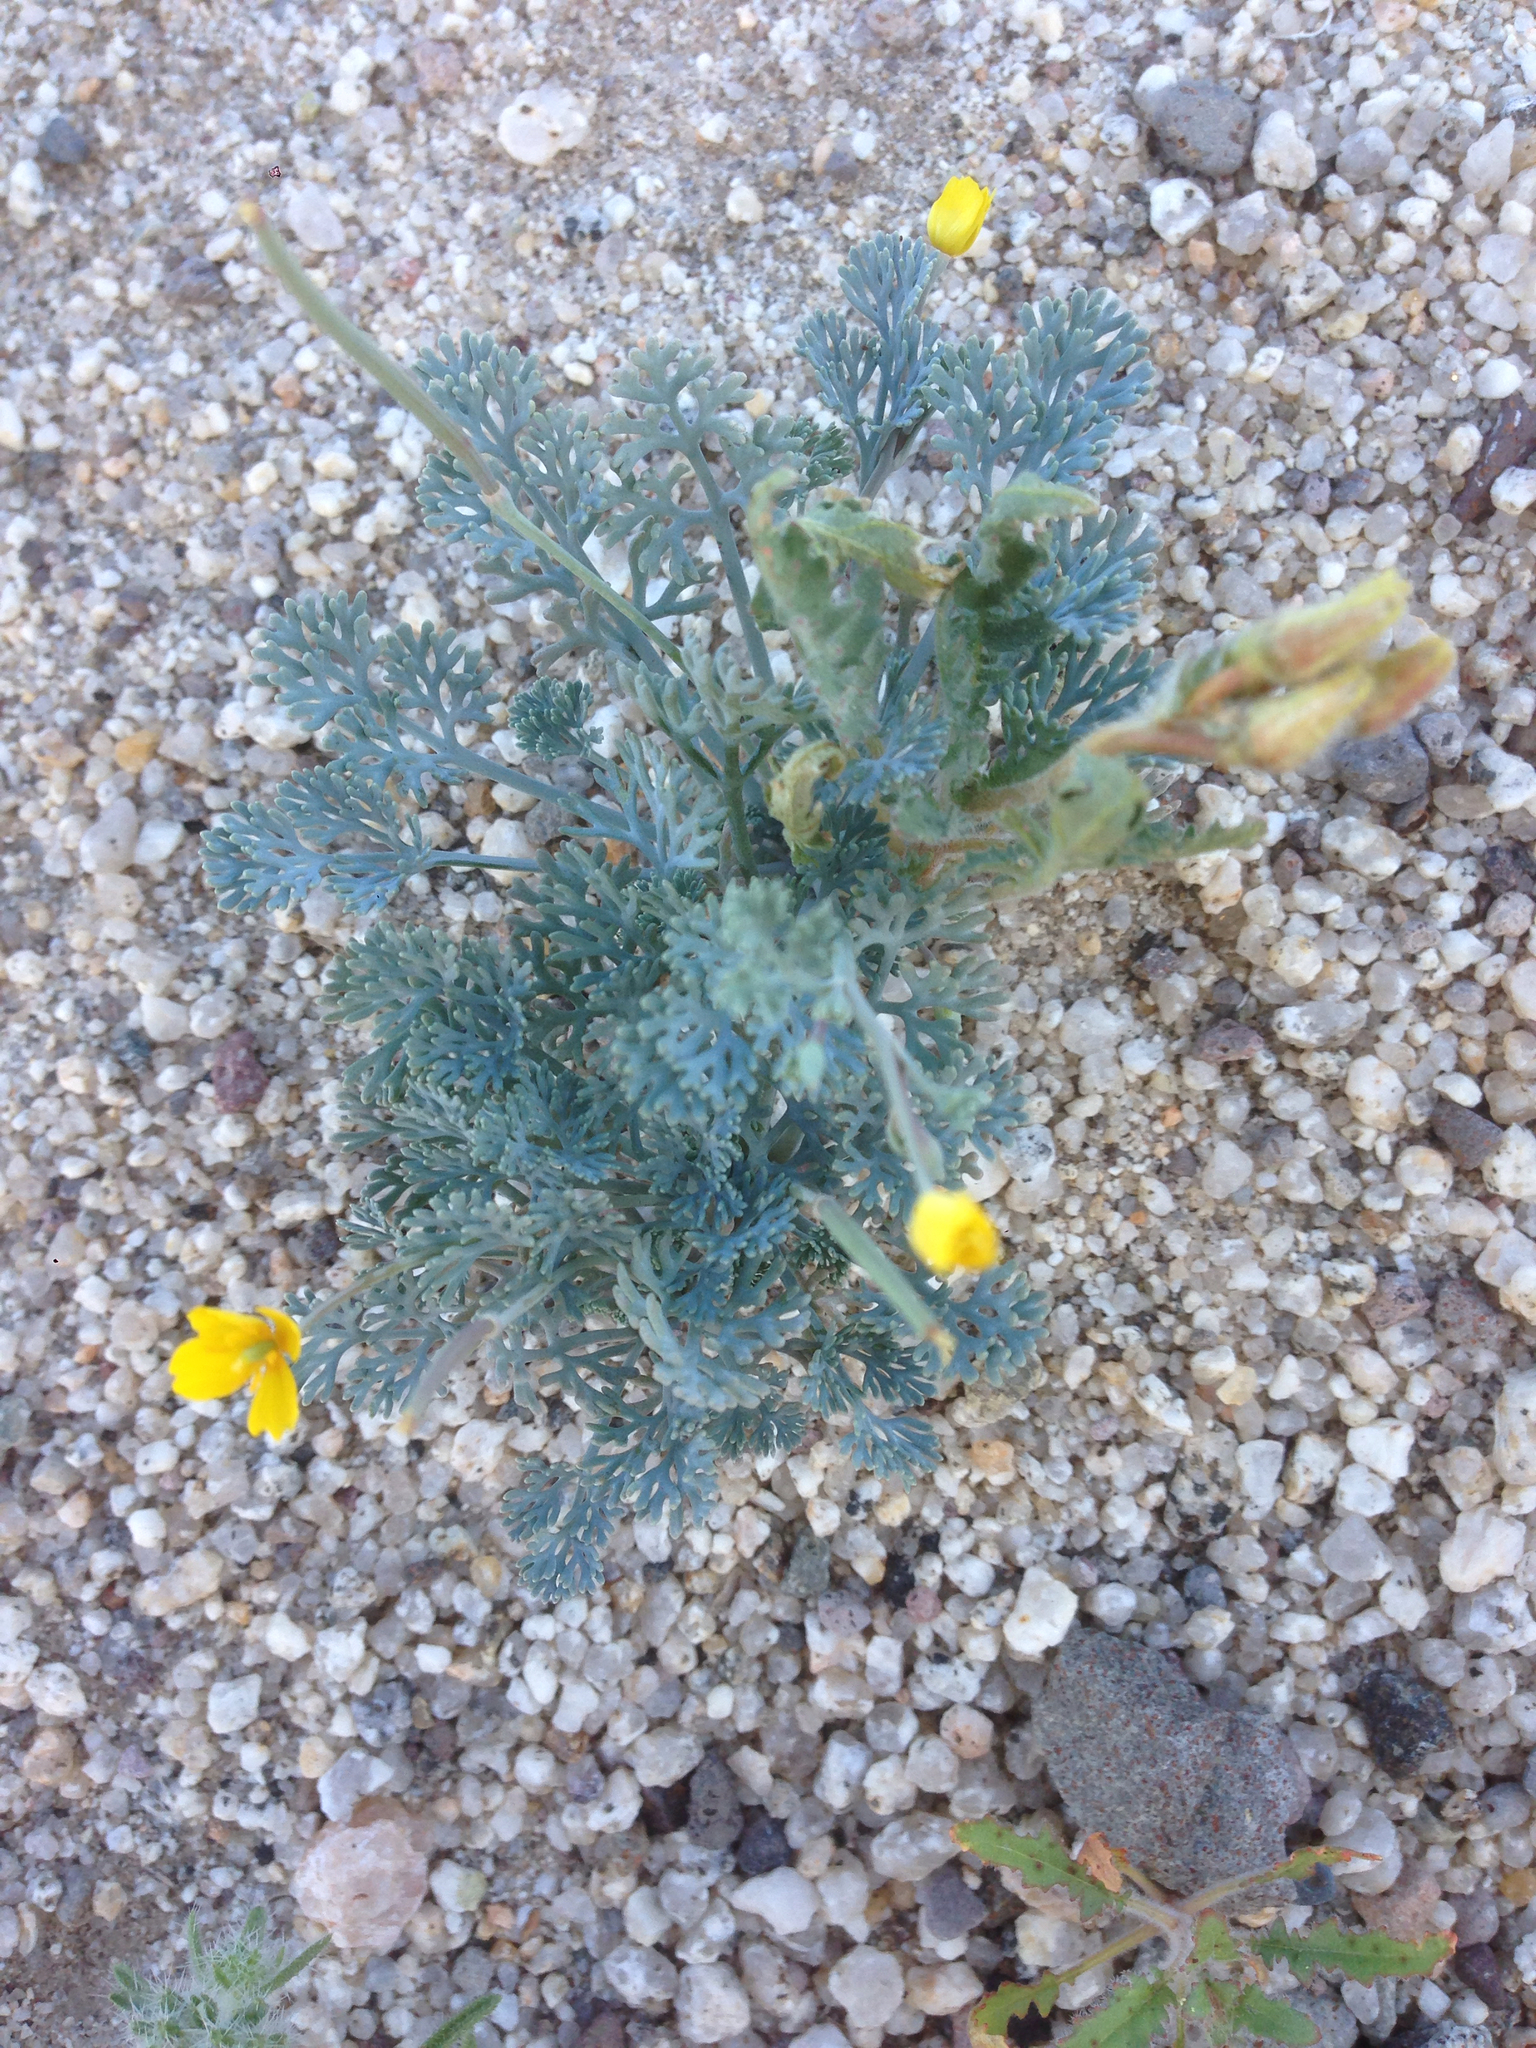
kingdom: Plantae
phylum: Tracheophyta
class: Magnoliopsida
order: Ranunculales
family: Papaveraceae
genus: Eschscholzia
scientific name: Eschscholzia minutiflora
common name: Small-flower california-poppy
